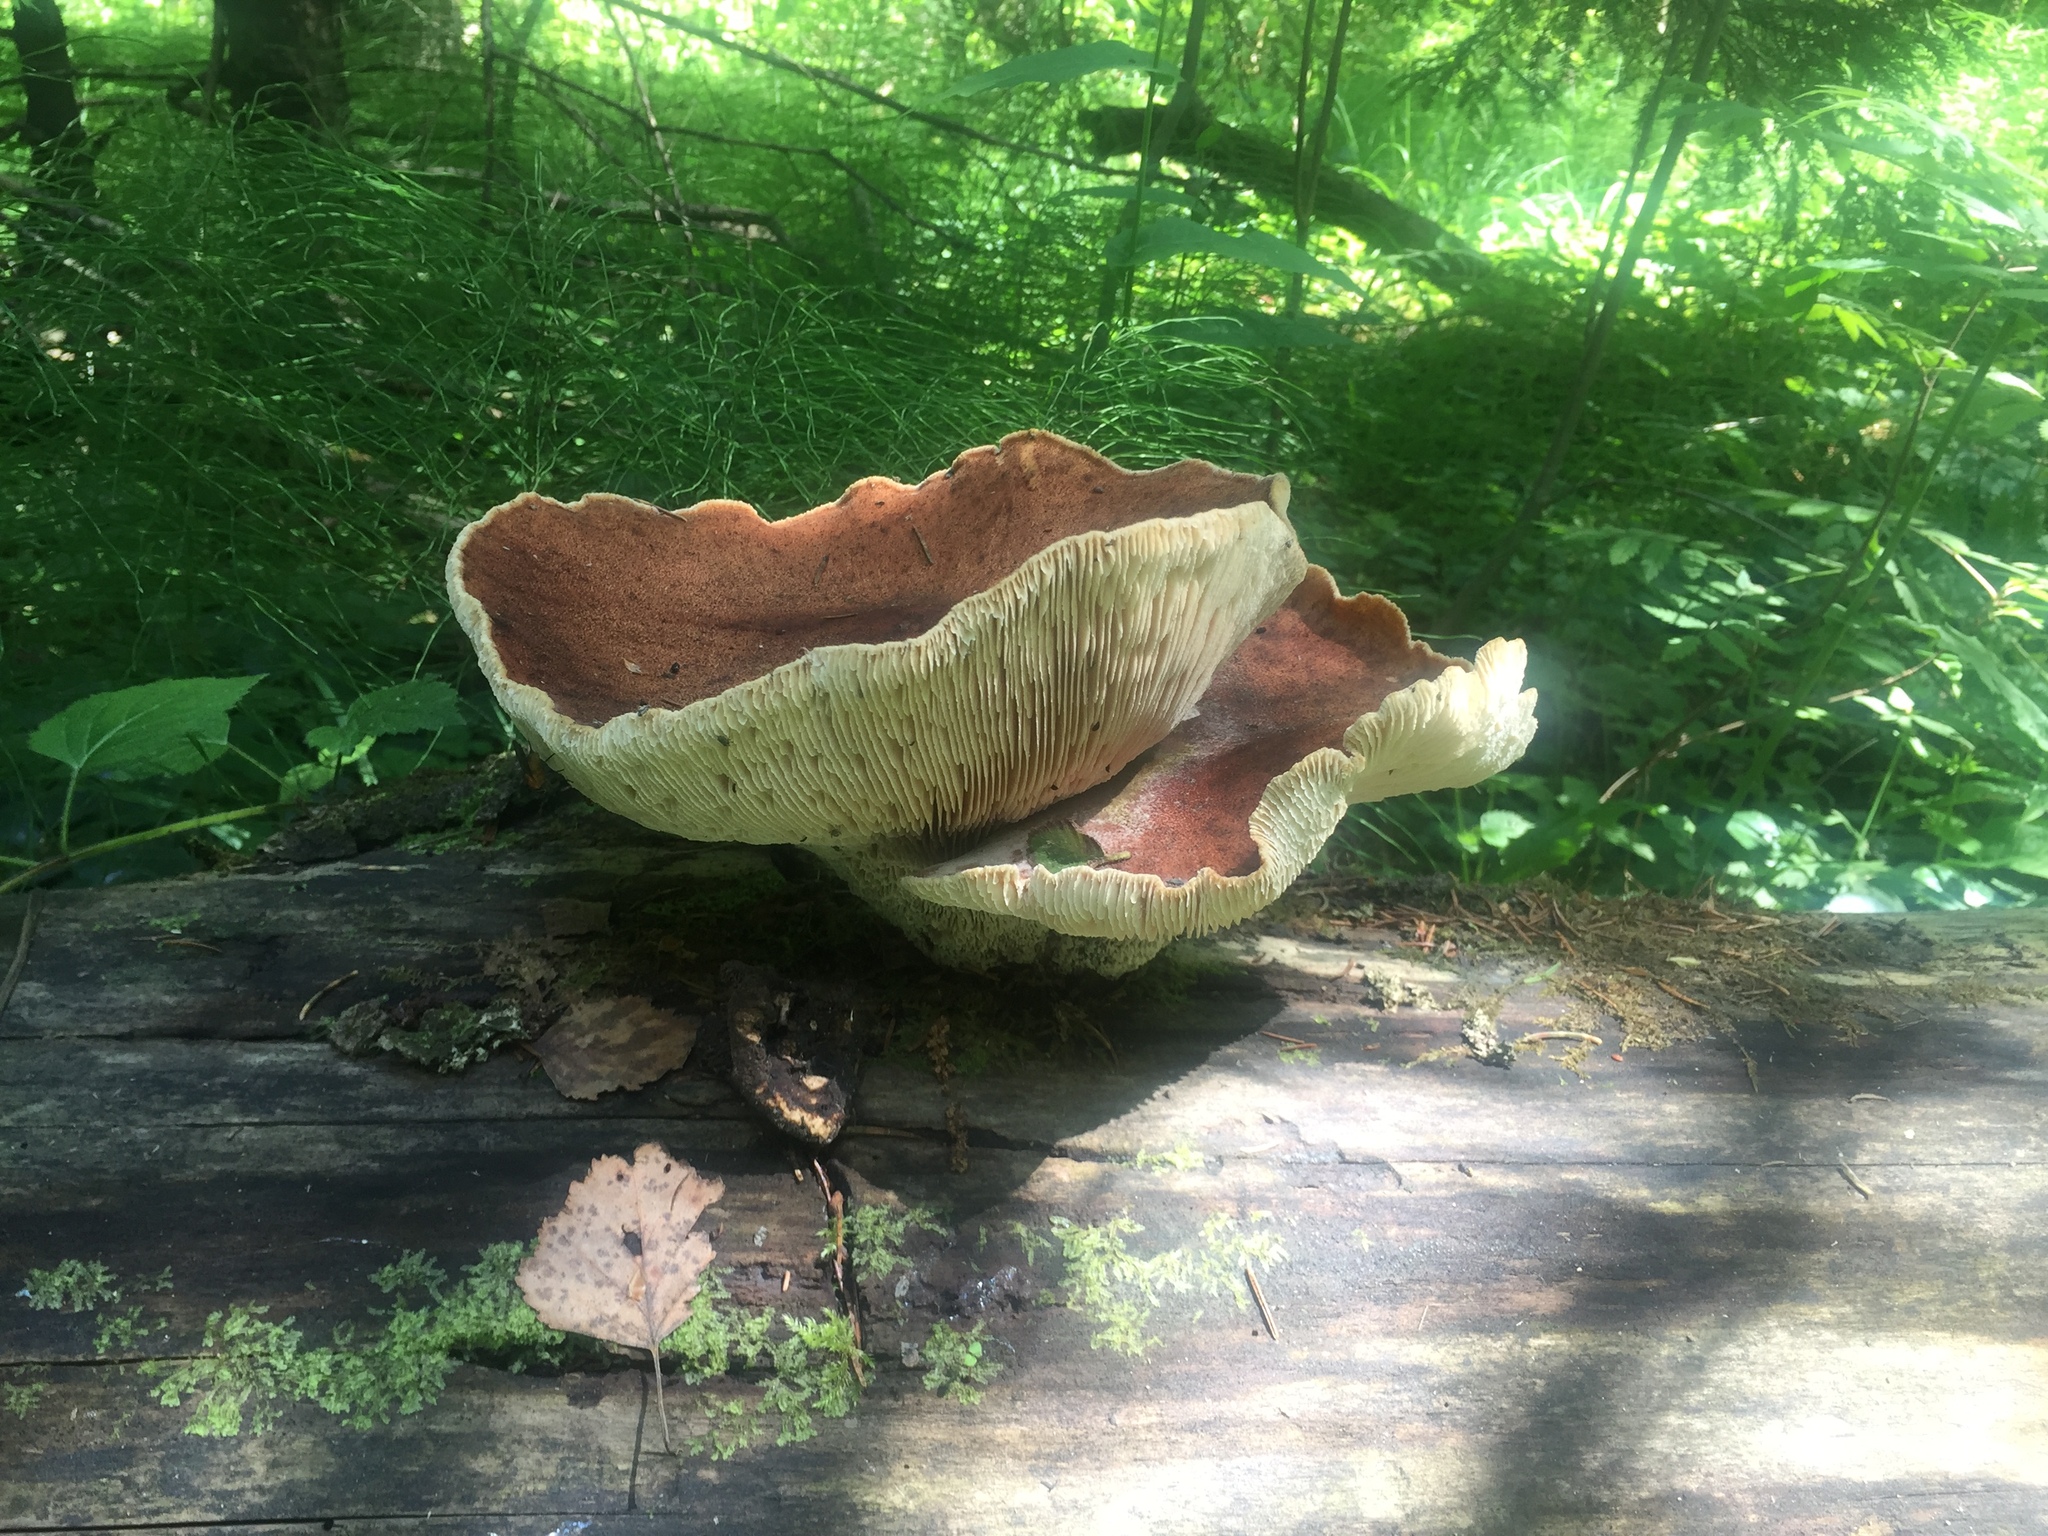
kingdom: Fungi
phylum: Basidiomycota
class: Agaricomycetes
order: Gloeophyllales
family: Gloeophyllaceae
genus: Neolentinus
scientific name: Neolentinus cyathiformis
